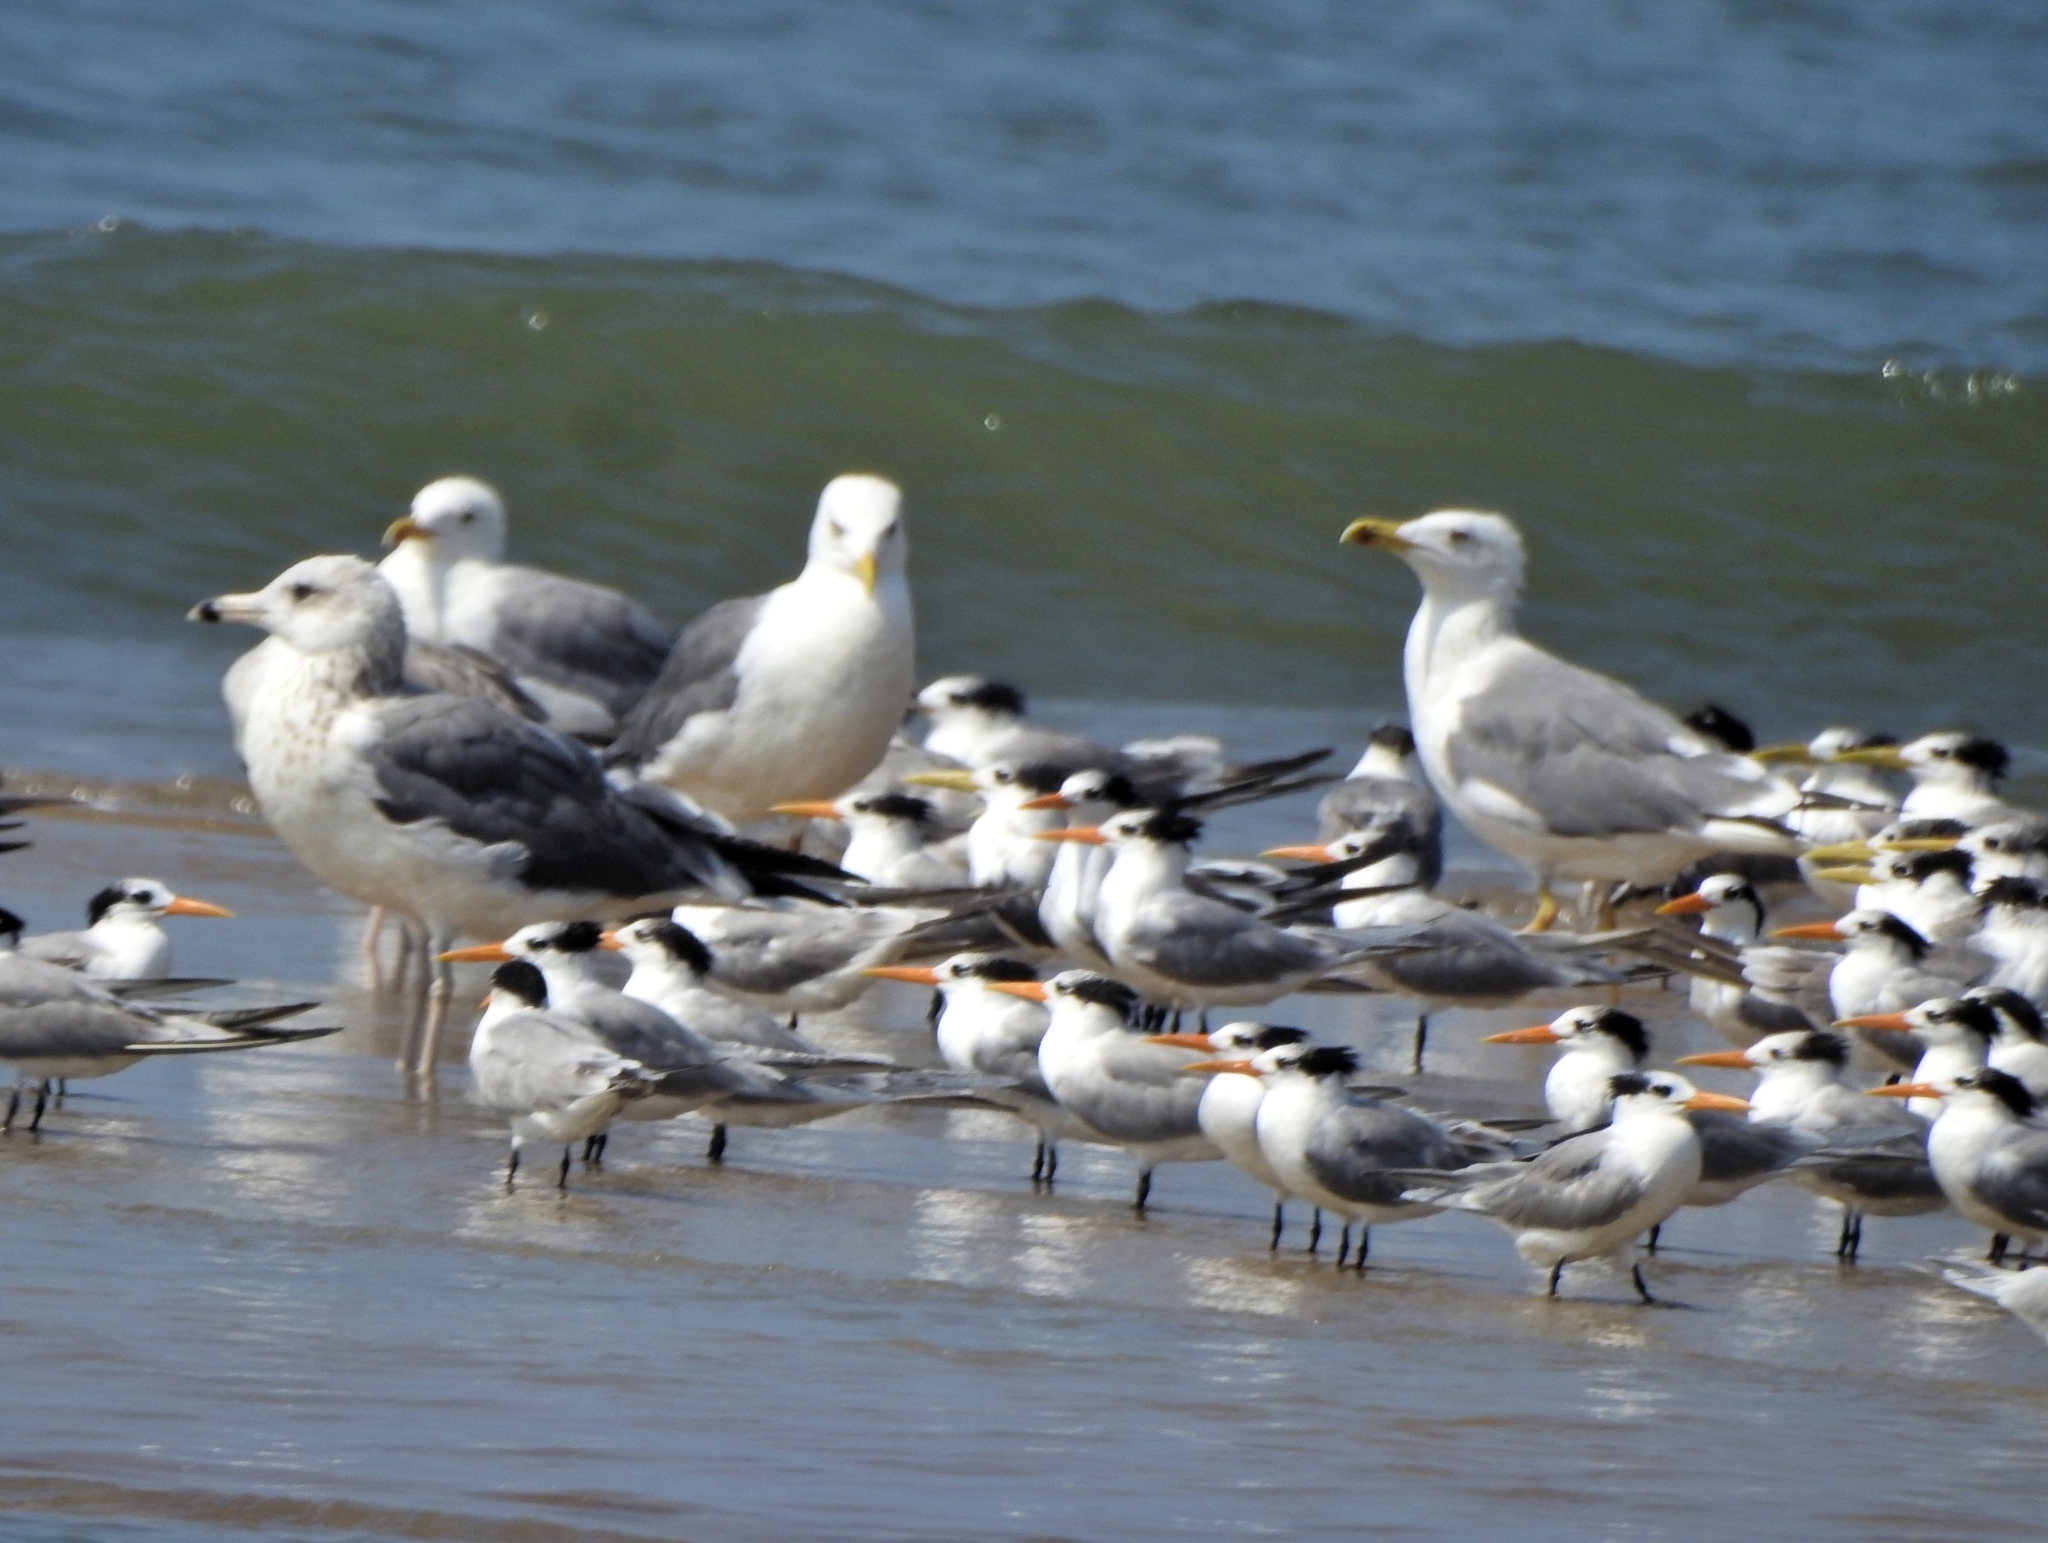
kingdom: Animalia
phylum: Chordata
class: Aves
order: Charadriiformes
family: Laridae
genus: Larus
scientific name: Larus fuscus
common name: Lesser black-backed gull
